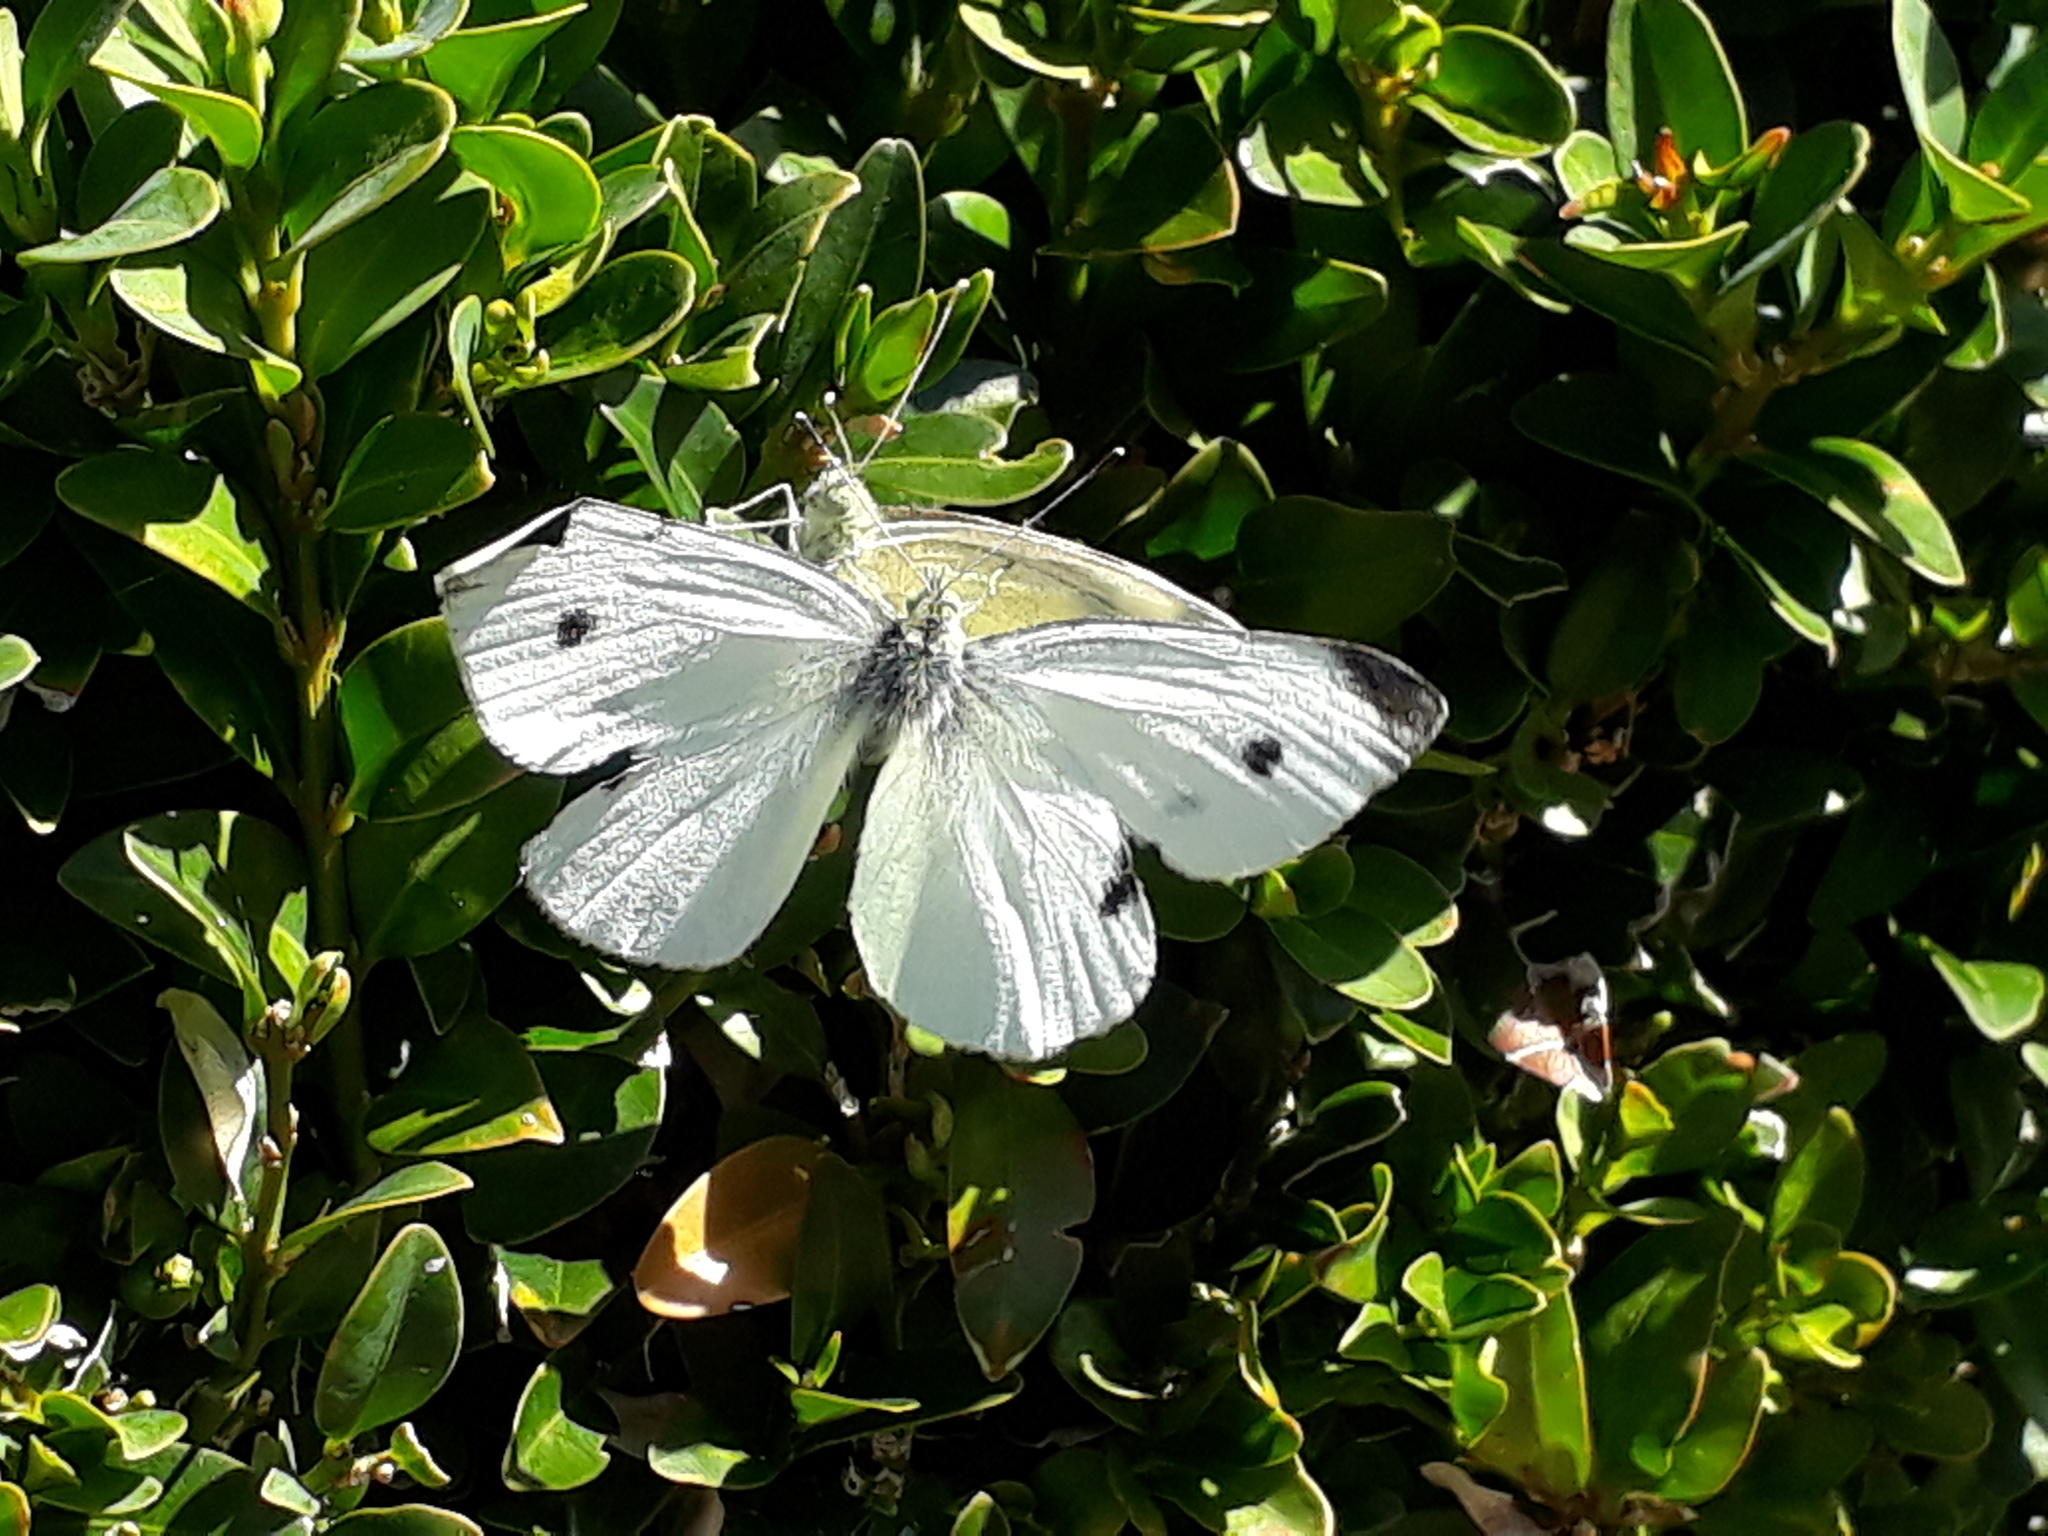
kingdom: Animalia
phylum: Arthropoda
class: Insecta
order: Lepidoptera
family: Pieridae
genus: Pieris
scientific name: Pieris rapae
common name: Small white
